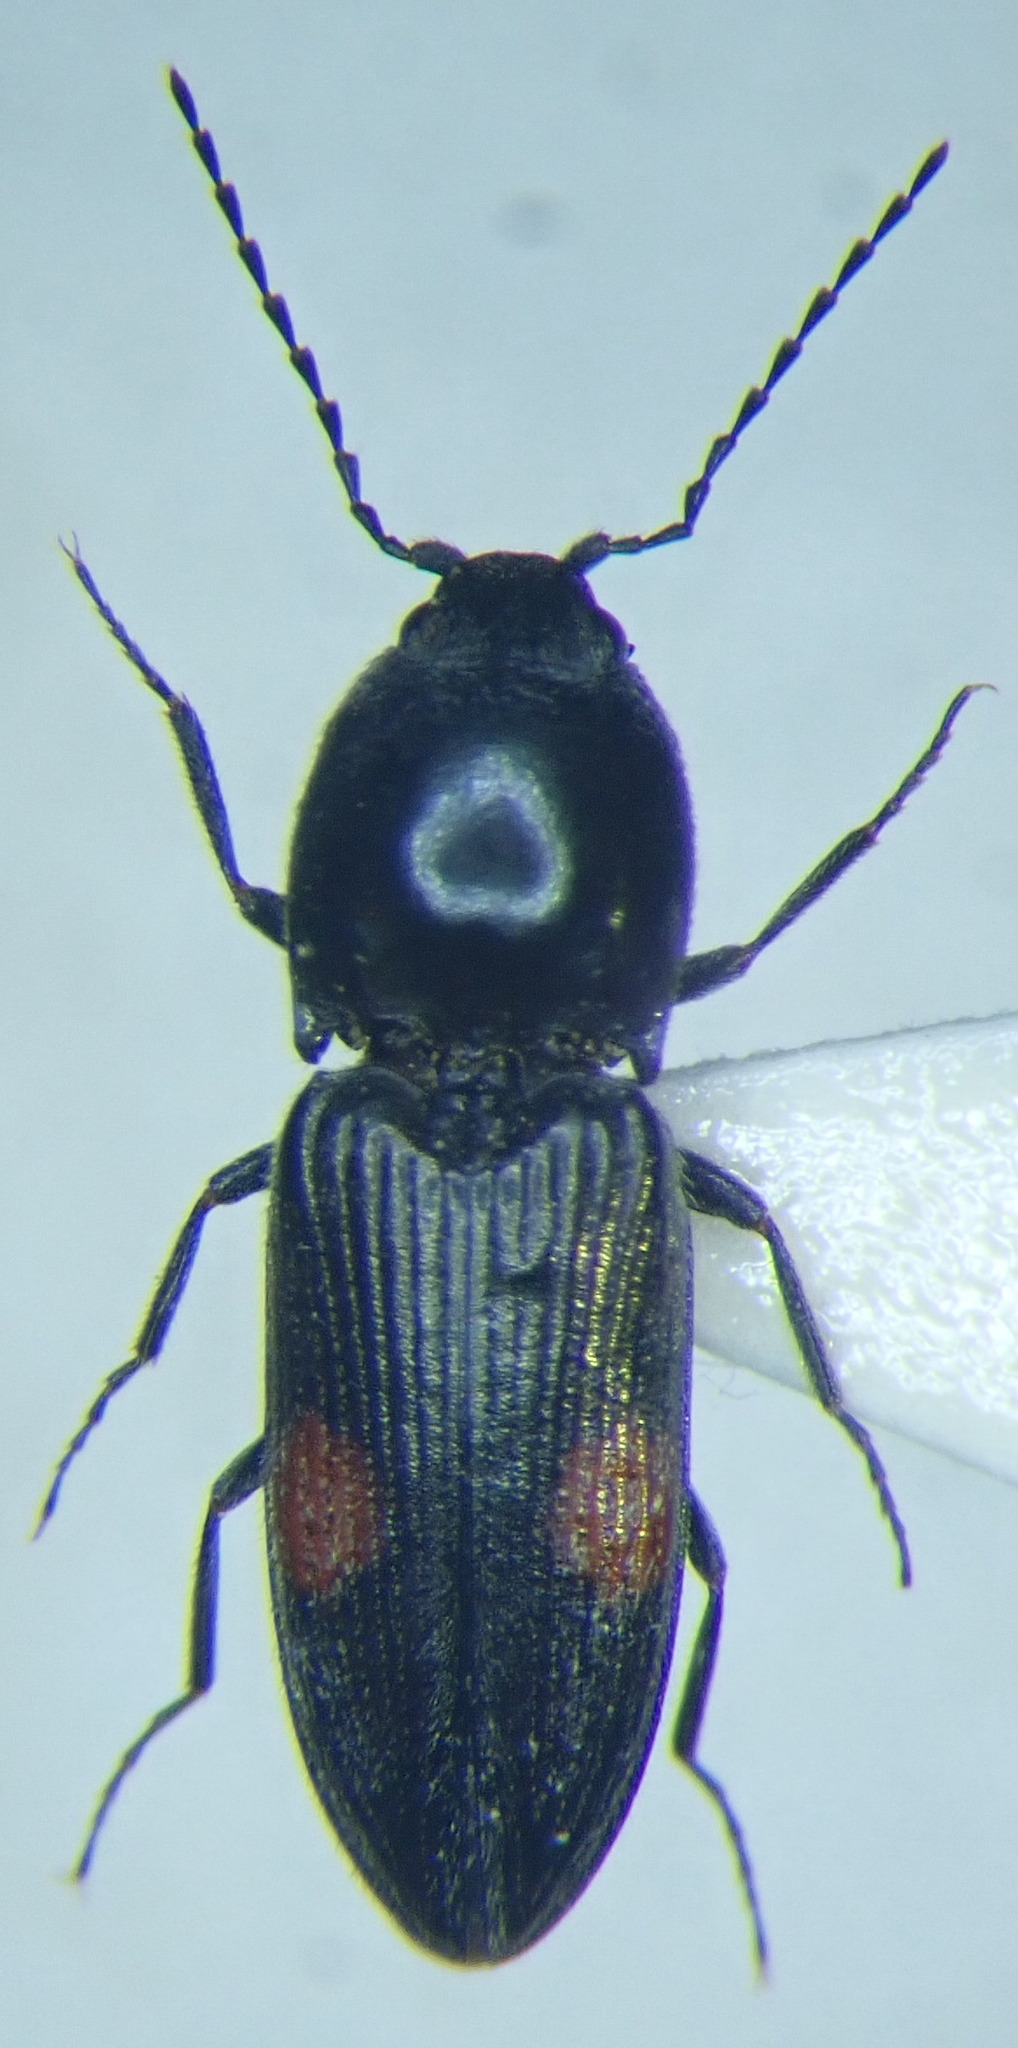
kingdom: Animalia
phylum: Arthropoda
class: Insecta
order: Coleoptera
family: Elateridae
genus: Cardiophorus
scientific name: Cardiophorus biguttatus
